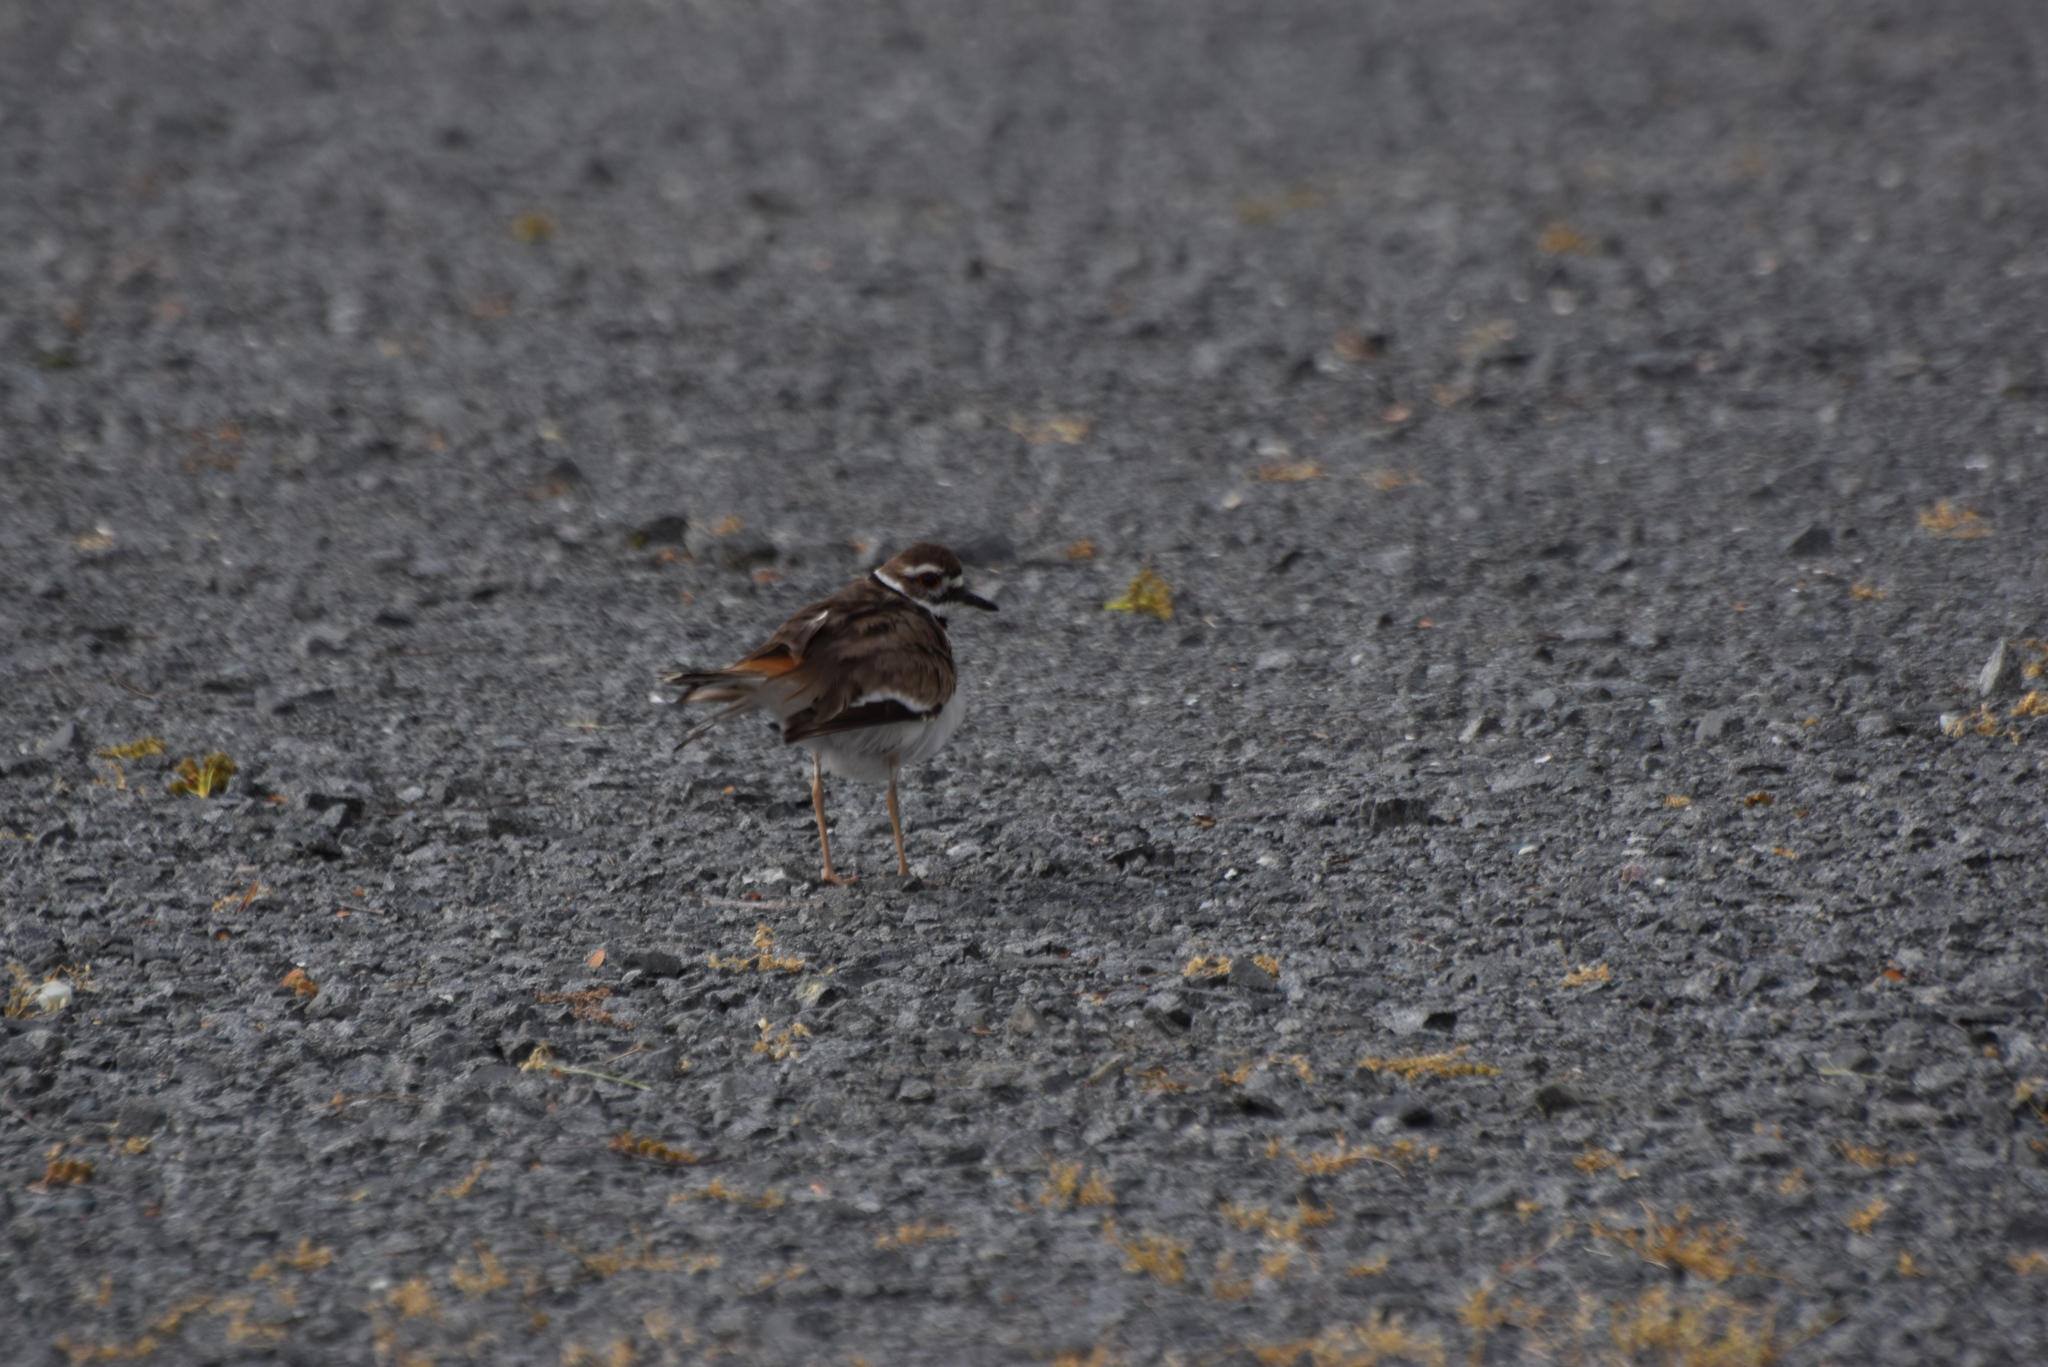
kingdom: Animalia
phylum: Chordata
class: Aves
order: Charadriiformes
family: Charadriidae
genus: Charadrius
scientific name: Charadrius vociferus
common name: Killdeer
